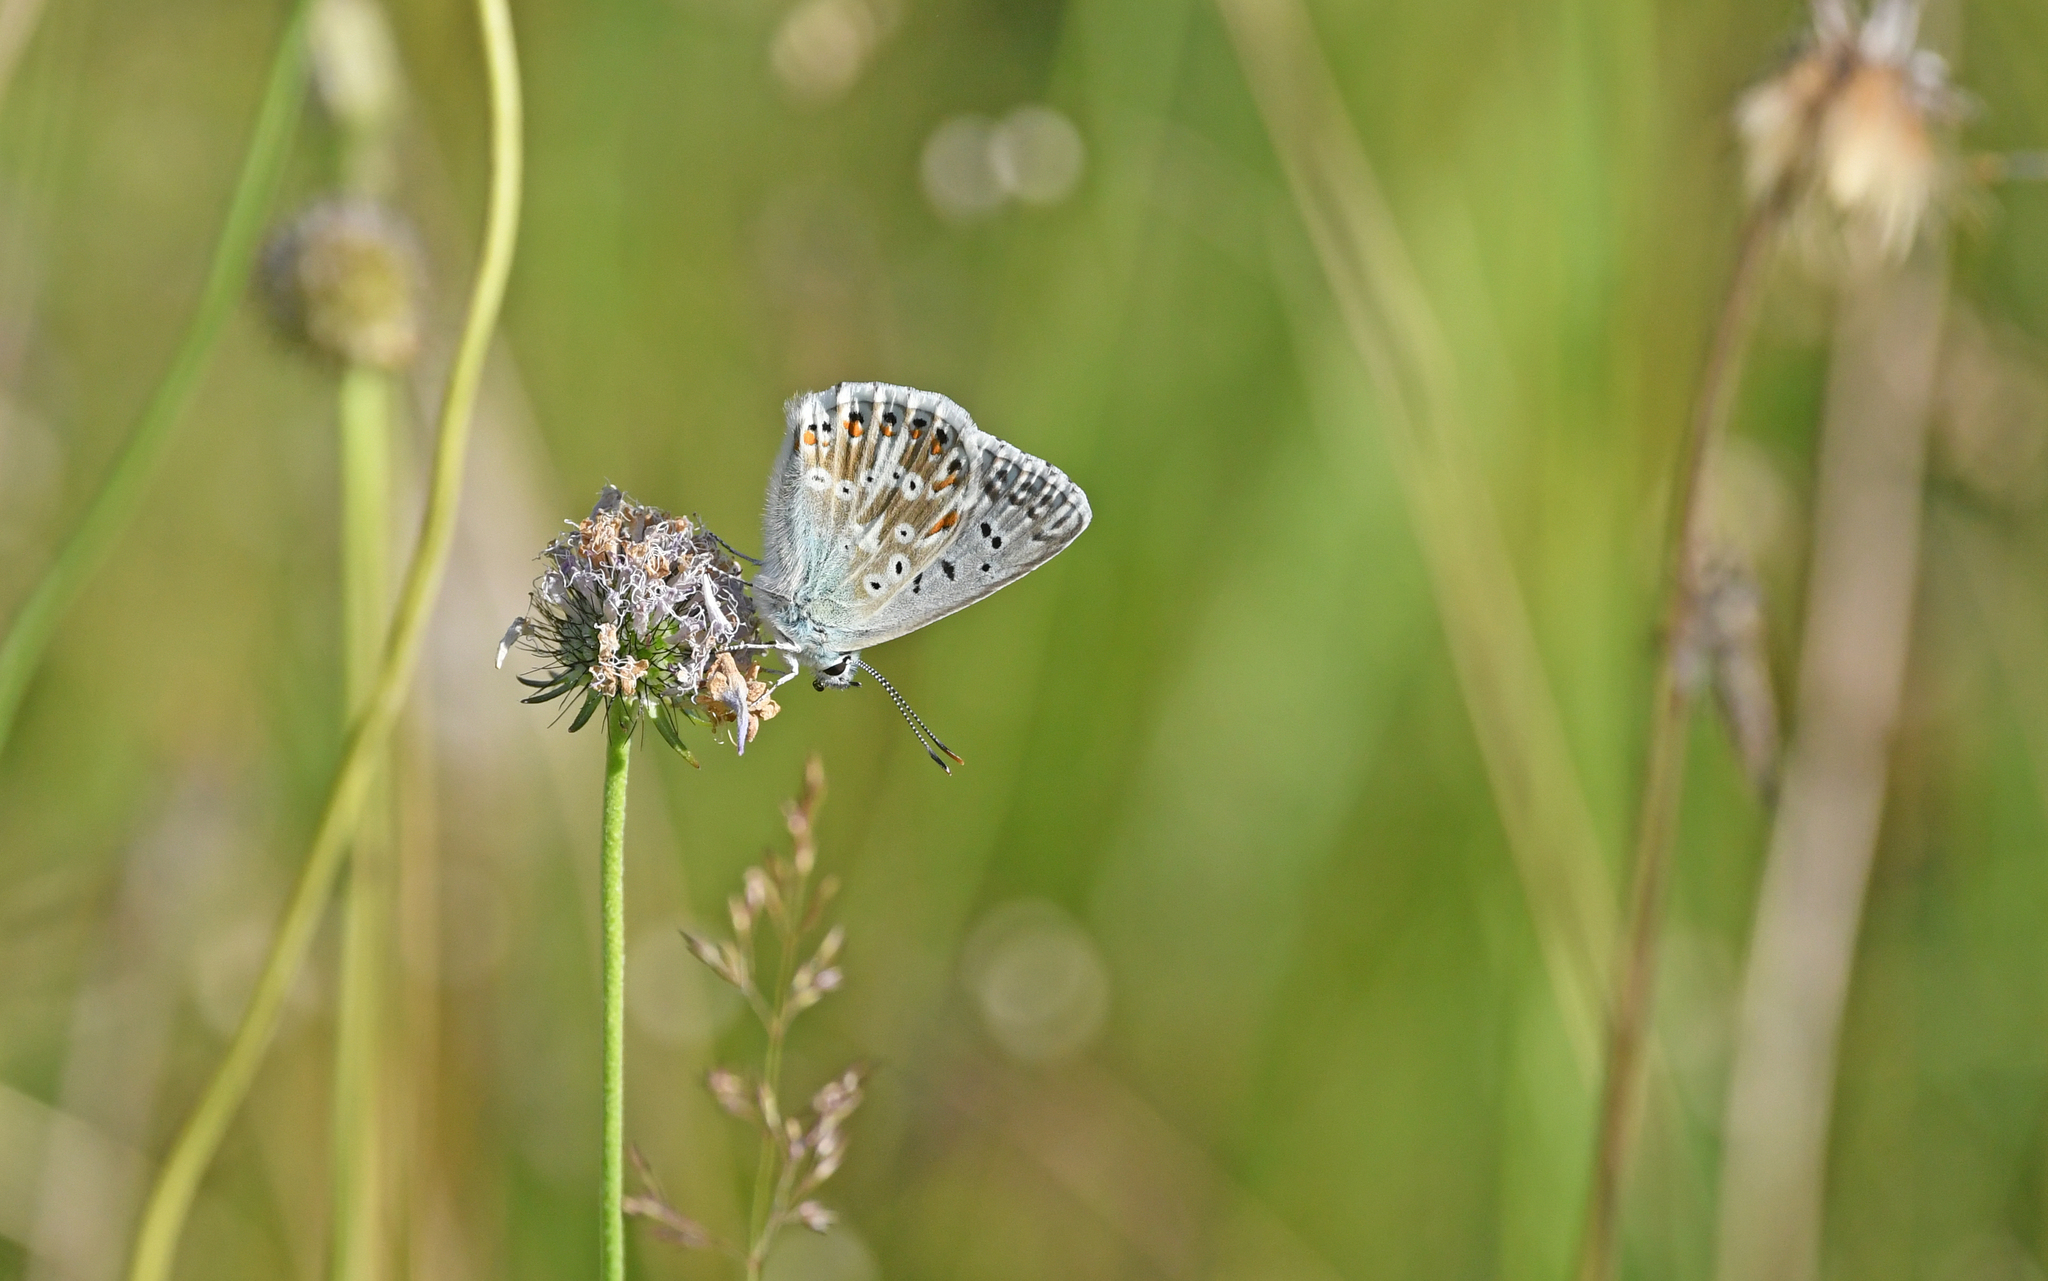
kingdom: Animalia
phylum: Arthropoda
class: Insecta
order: Lepidoptera
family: Lycaenidae
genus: Lysandra
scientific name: Lysandra coridon
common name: Chalkhill blue
